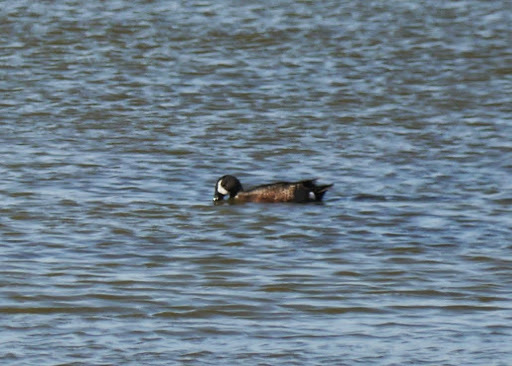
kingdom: Animalia
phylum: Chordata
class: Aves
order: Anseriformes
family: Anatidae
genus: Spatula
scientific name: Spatula discors
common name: Blue-winged teal
